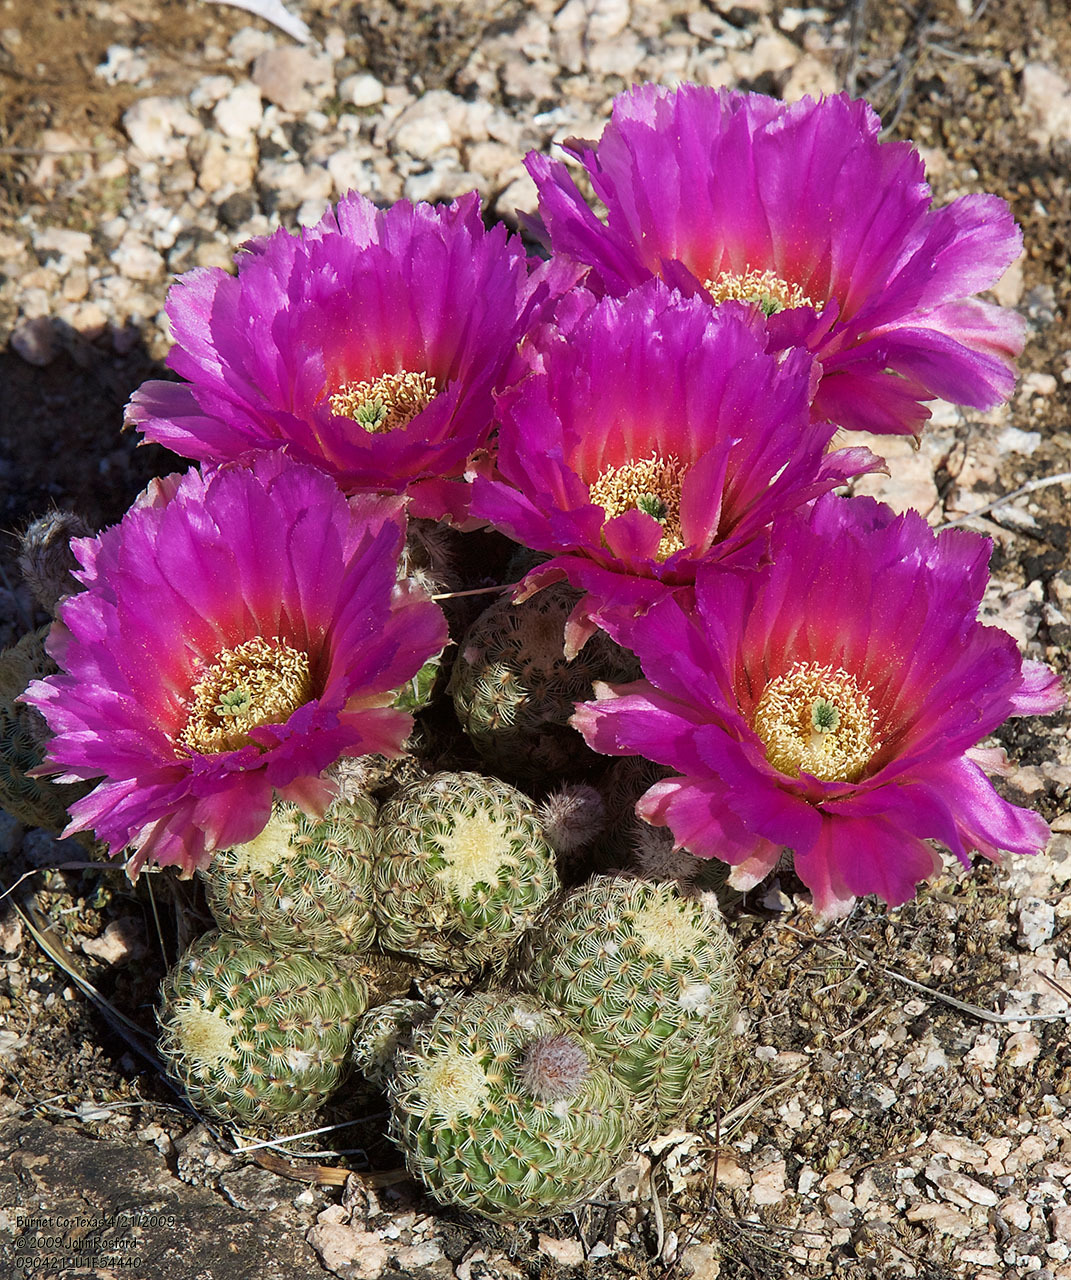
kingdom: Plantae
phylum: Tracheophyta
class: Magnoliopsida
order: Caryophyllales
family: Cactaceae
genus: Echinocereus
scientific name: Echinocereus reichenbachii
